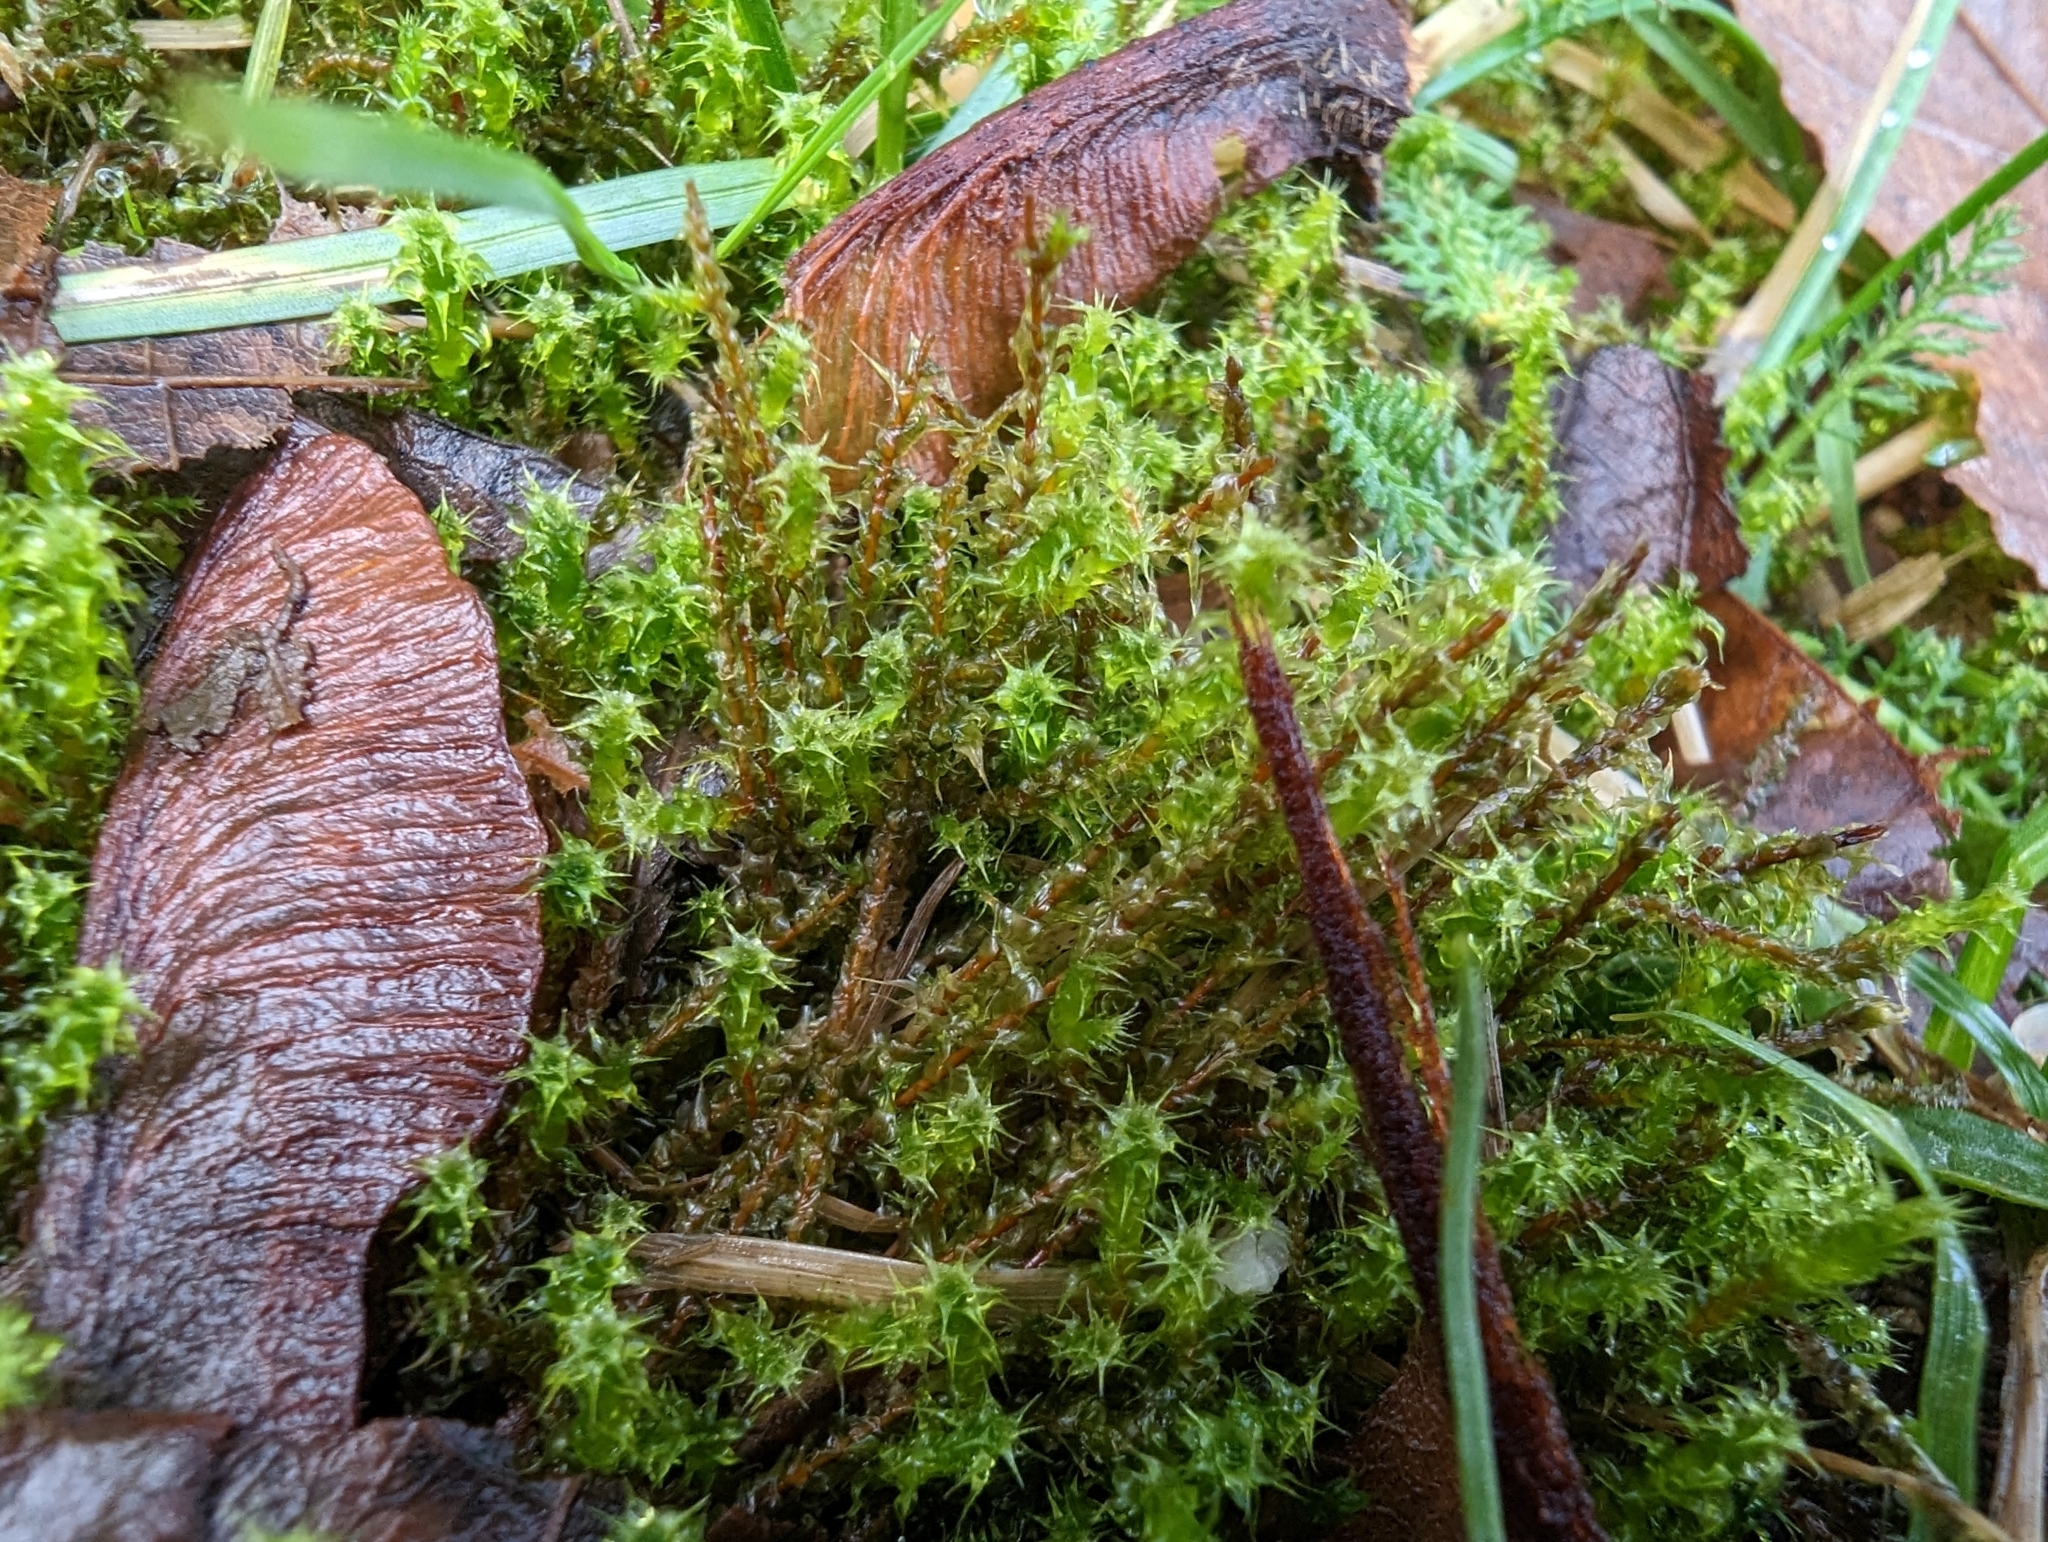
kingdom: Plantae
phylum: Bryophyta
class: Bryopsida
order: Hypnales
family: Hylocomiaceae
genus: Rhytidiadelphus
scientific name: Rhytidiadelphus squarrosus
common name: Springy turf-moss
